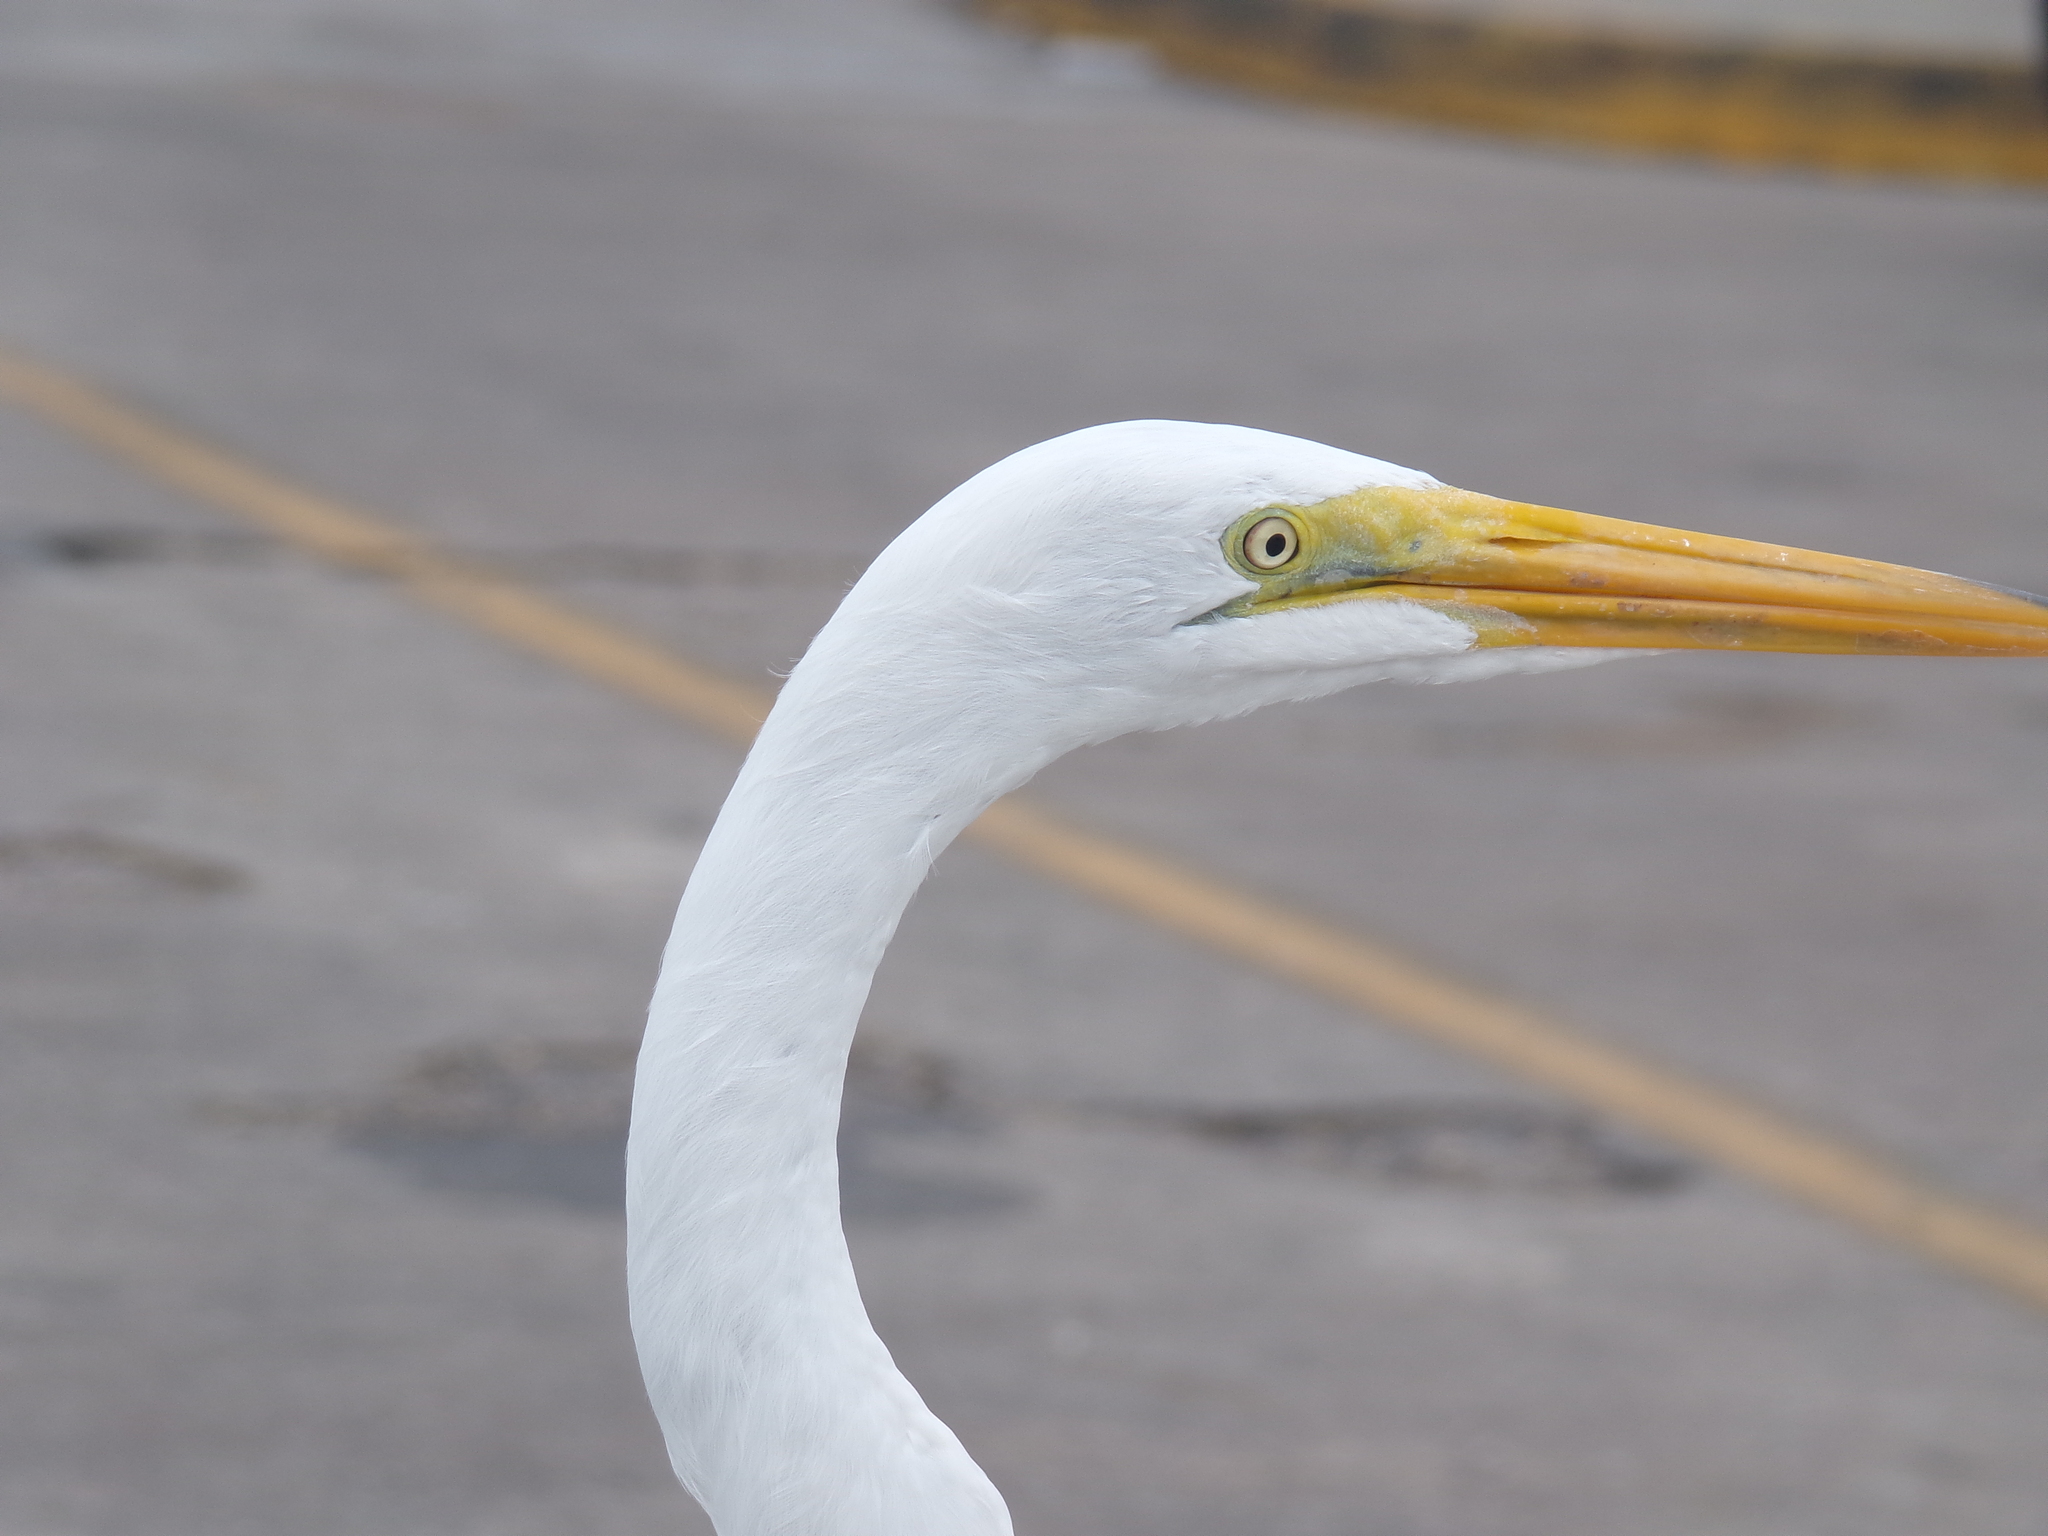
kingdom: Animalia
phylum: Chordata
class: Aves
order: Pelecaniformes
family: Ardeidae
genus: Ardea
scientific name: Ardea alba
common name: Great egret
